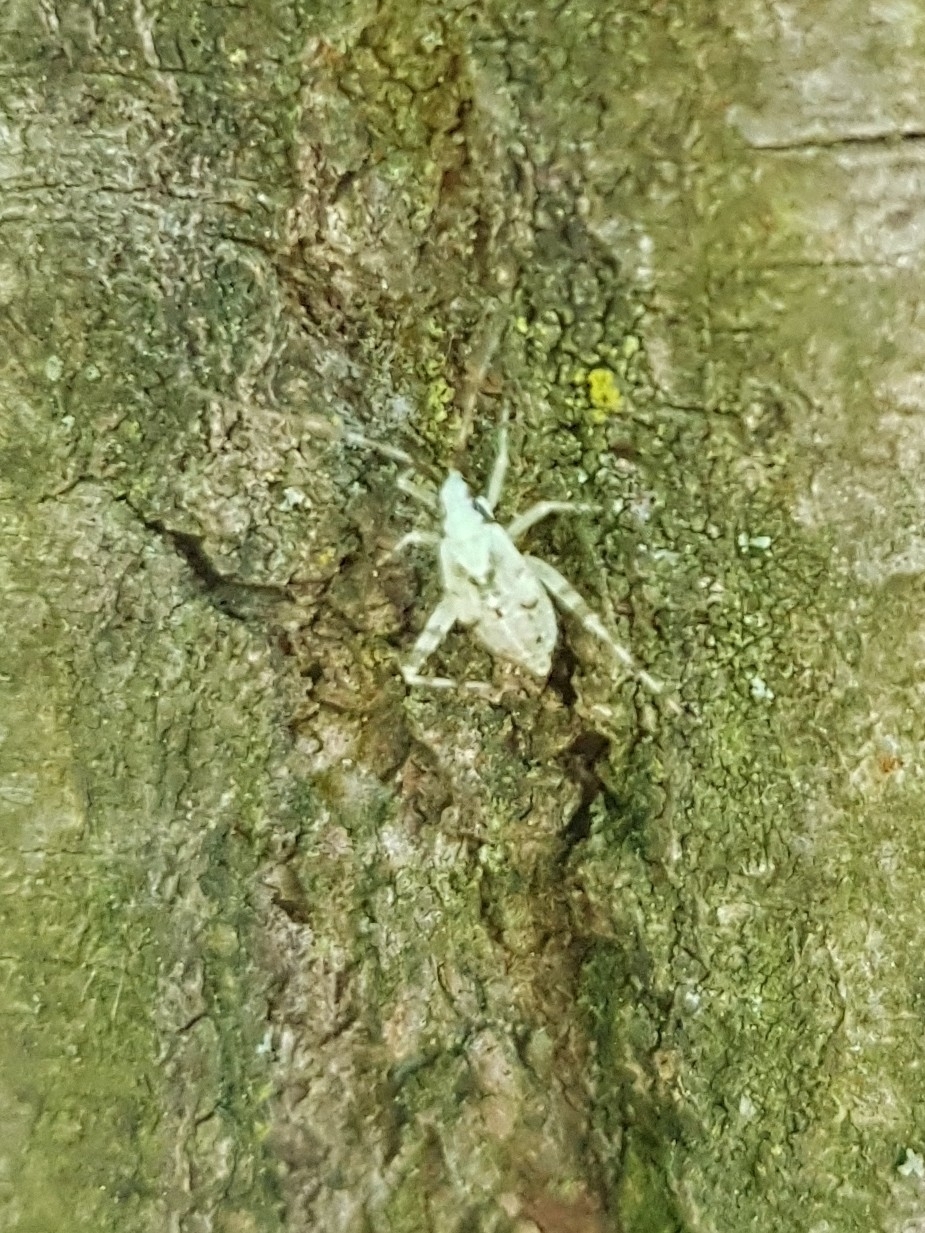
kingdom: Animalia
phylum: Arthropoda
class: Insecta
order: Hemiptera
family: Miridae
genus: Phytocoris
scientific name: Phytocoris tiliae
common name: Plant bug
